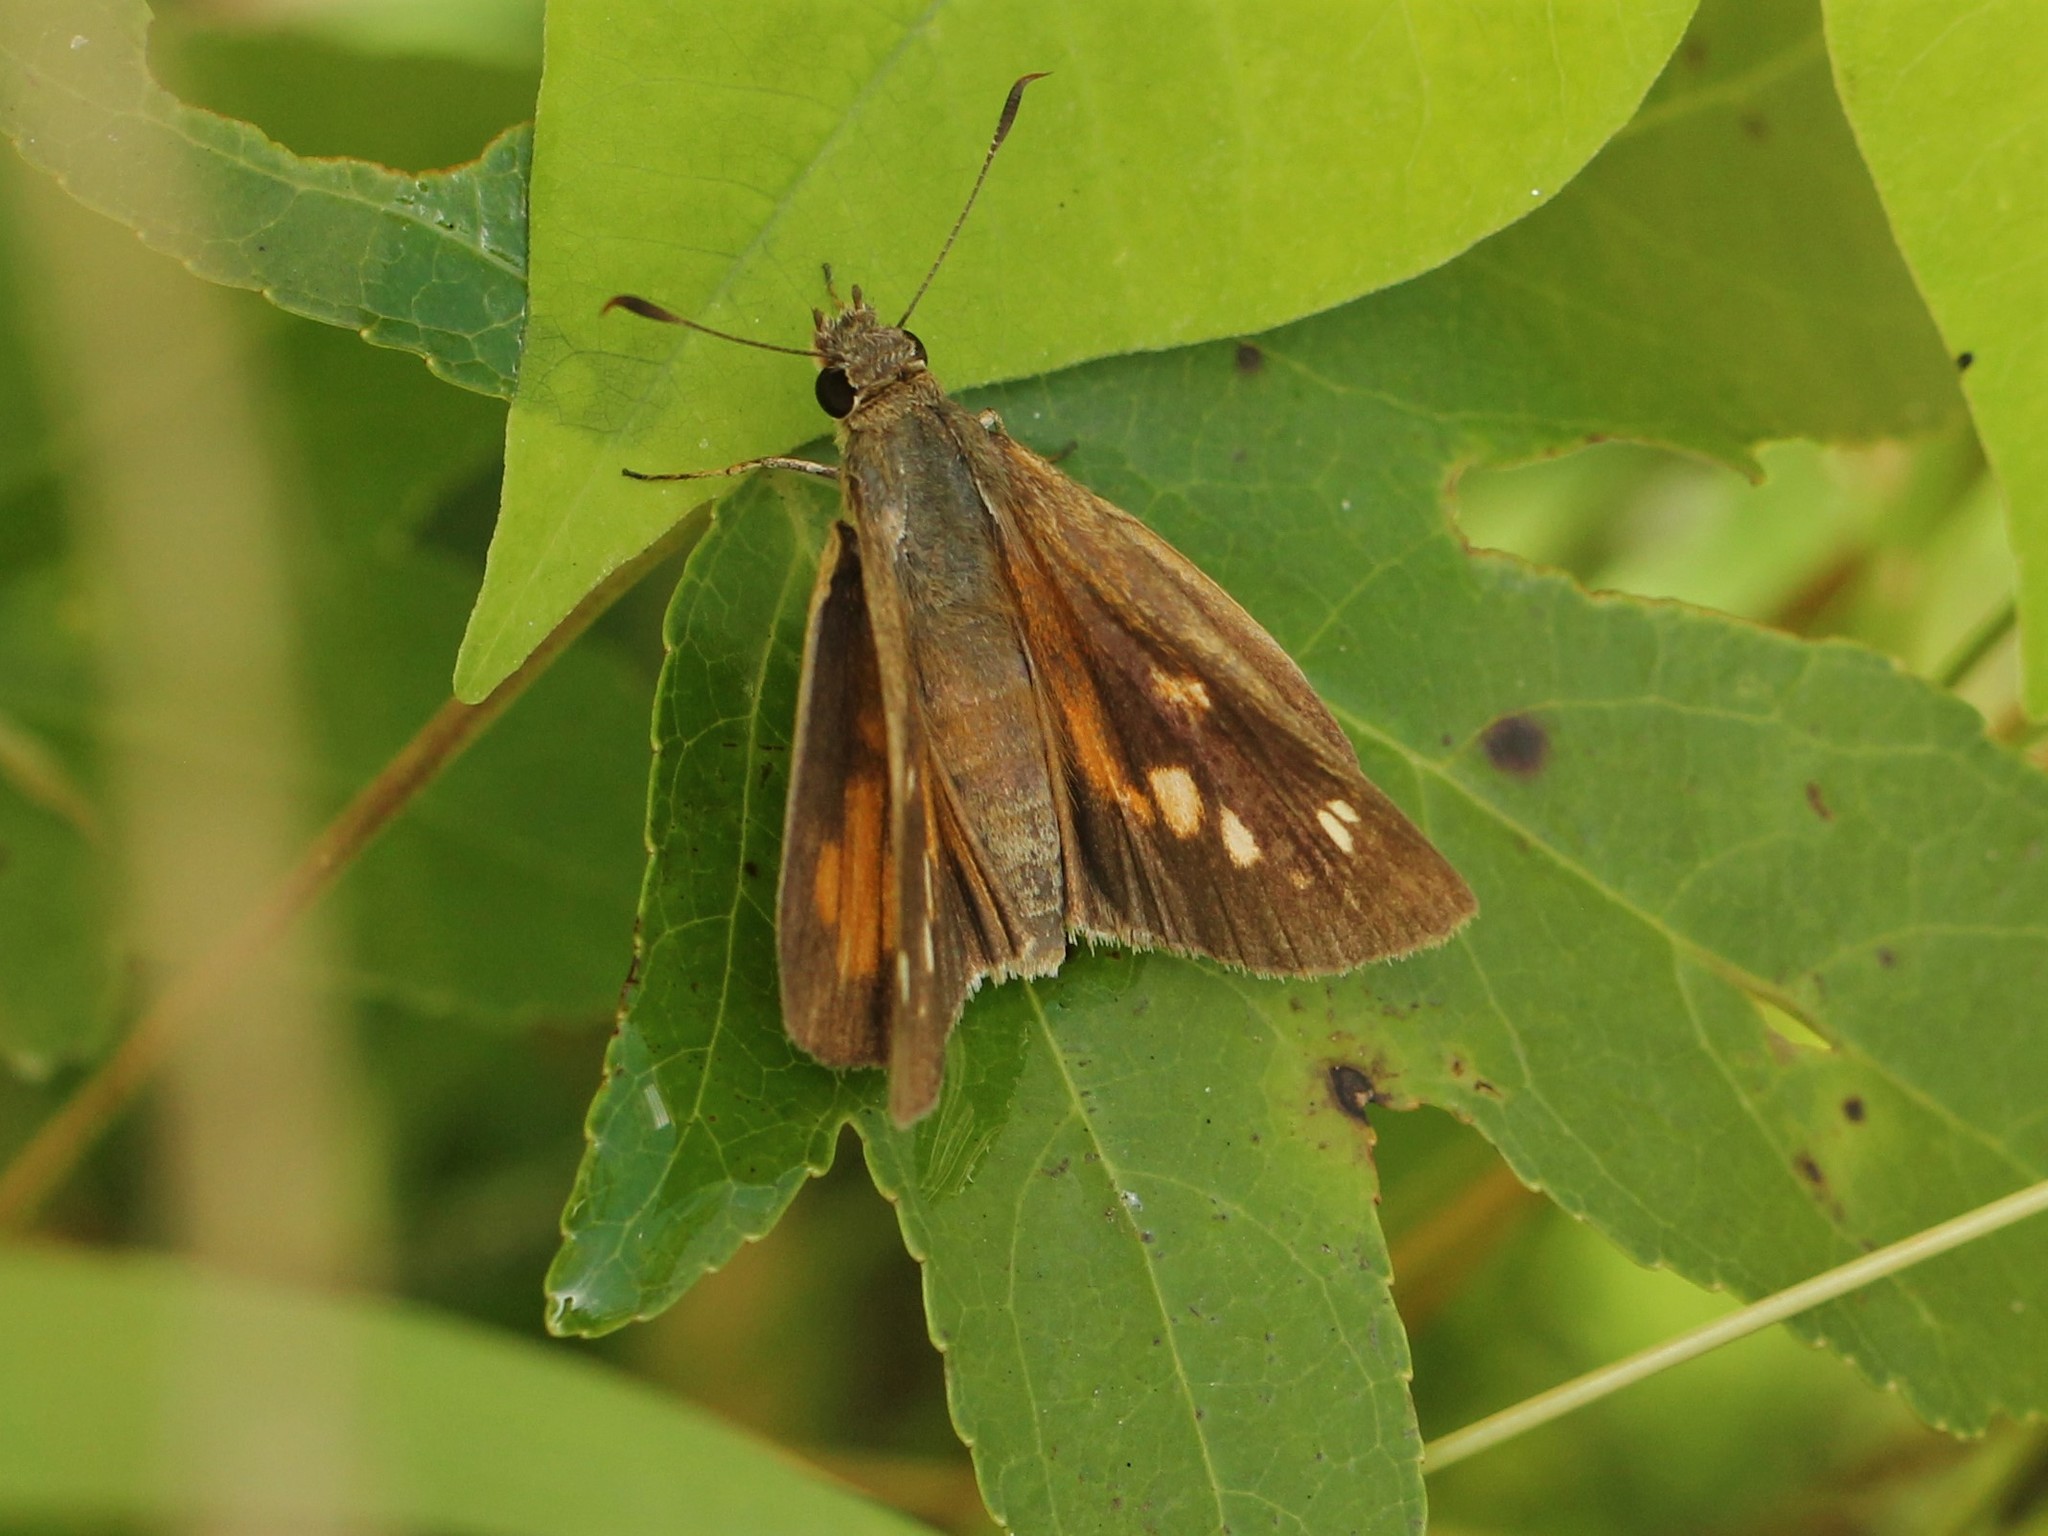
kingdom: Animalia
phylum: Arthropoda
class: Insecta
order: Lepidoptera
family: Hesperiidae
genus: Poanes
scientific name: Poanes viator
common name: Broad-winged skipper
